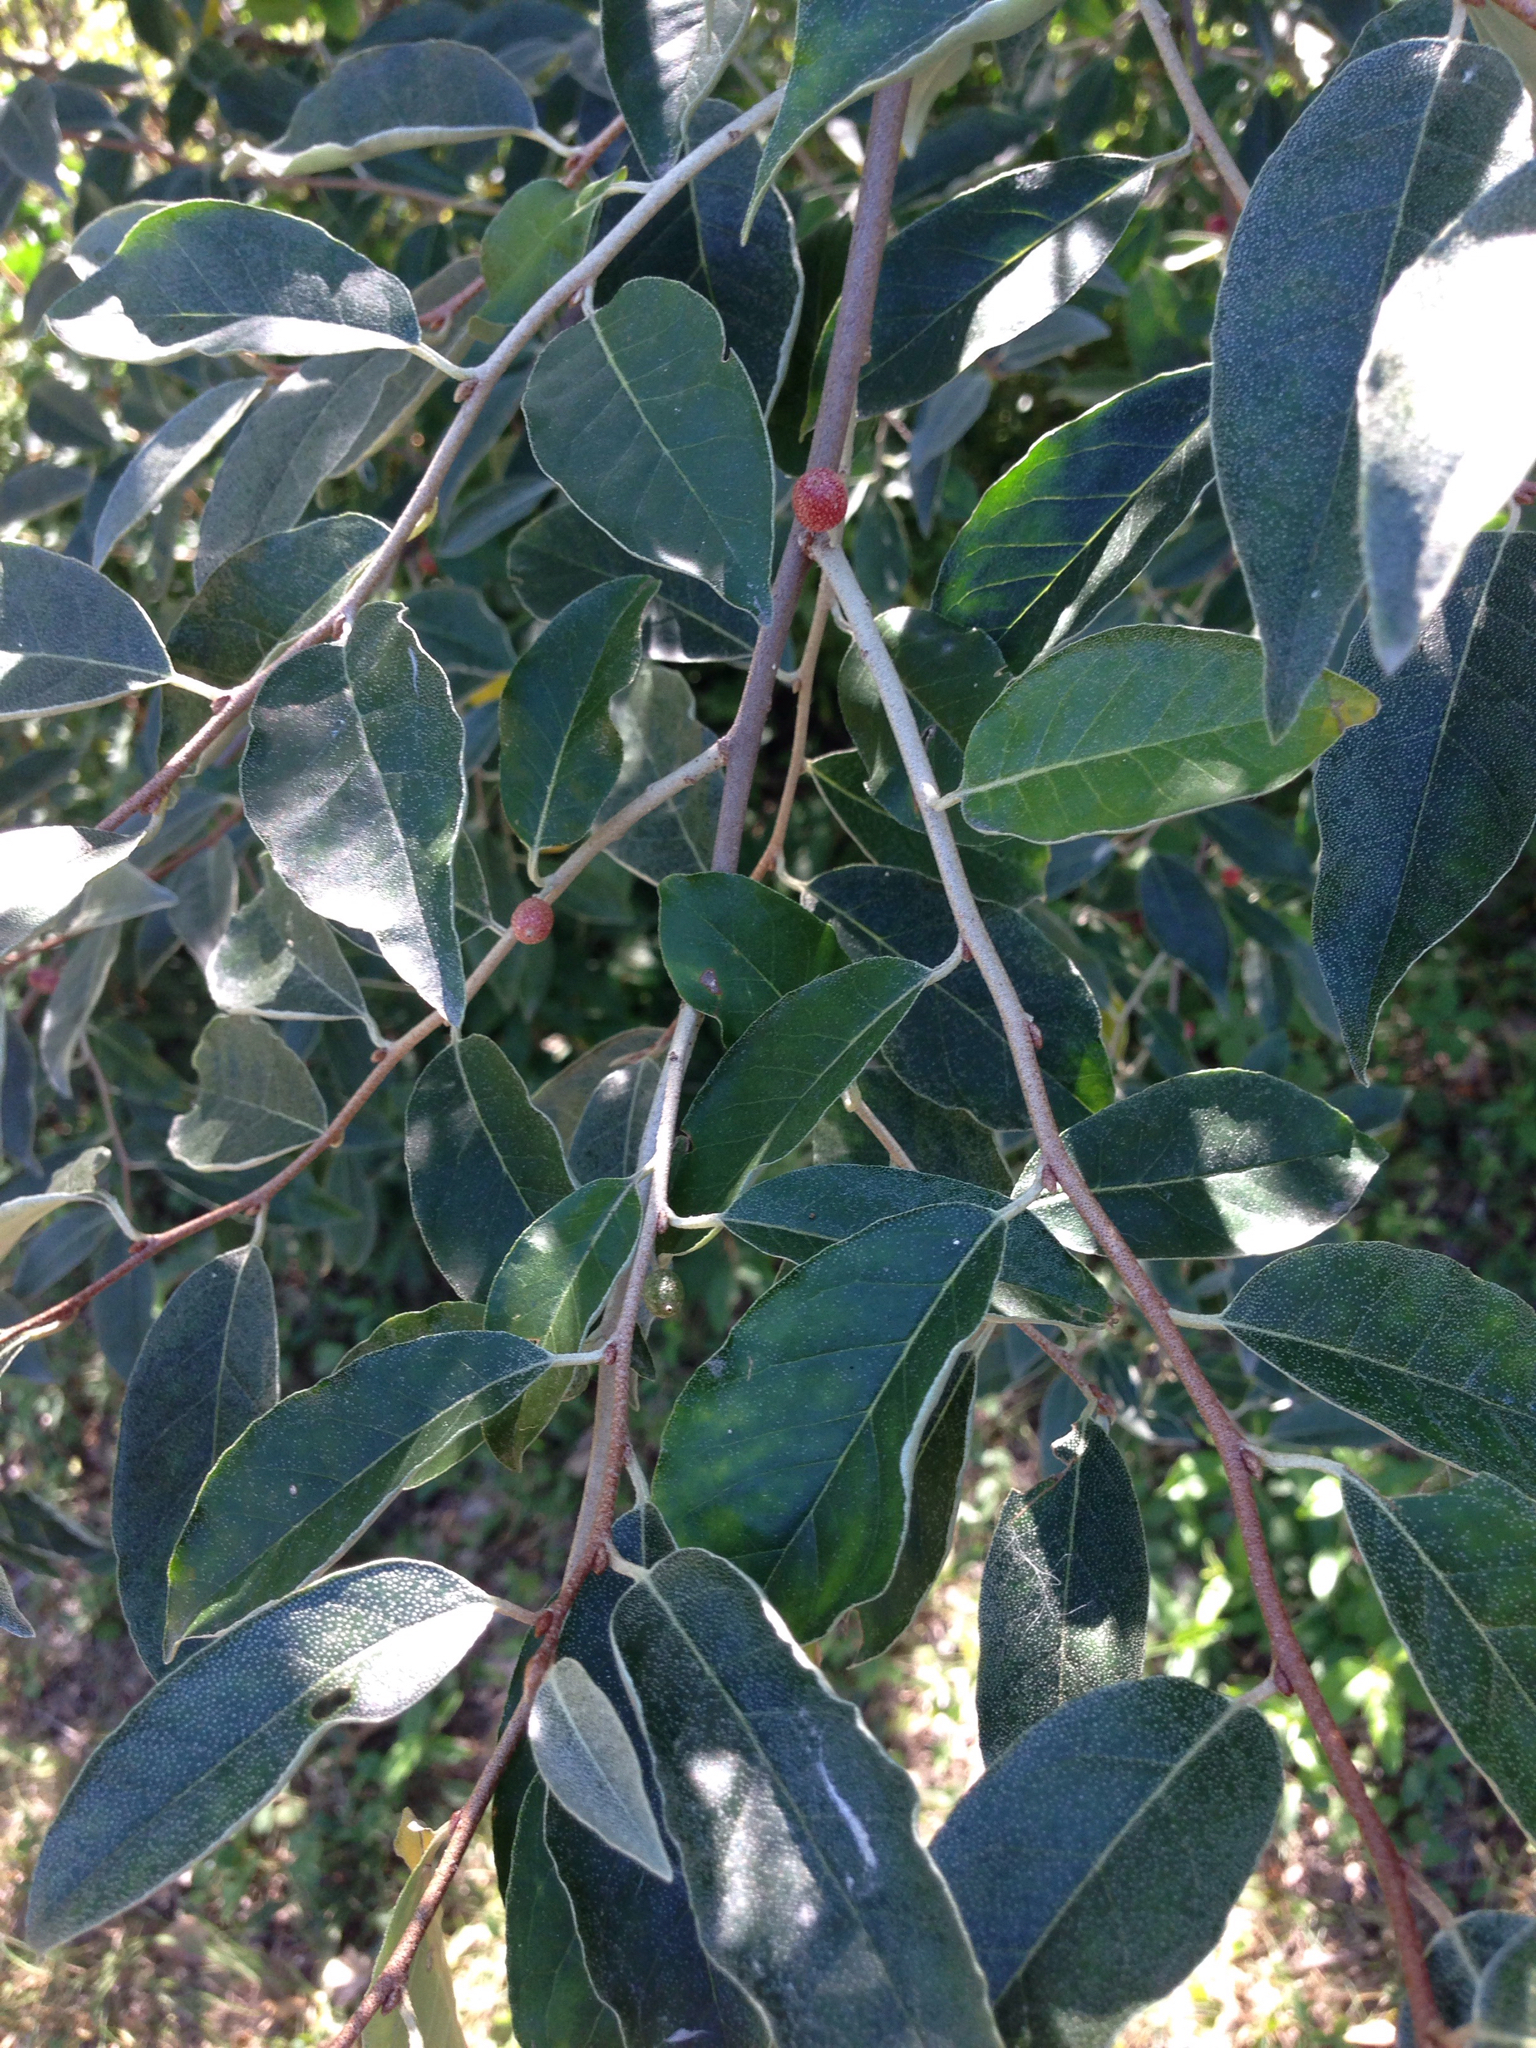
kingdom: Plantae
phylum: Tracheophyta
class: Magnoliopsida
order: Rosales
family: Elaeagnaceae
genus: Elaeagnus
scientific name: Elaeagnus umbellata
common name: Autumn olive
